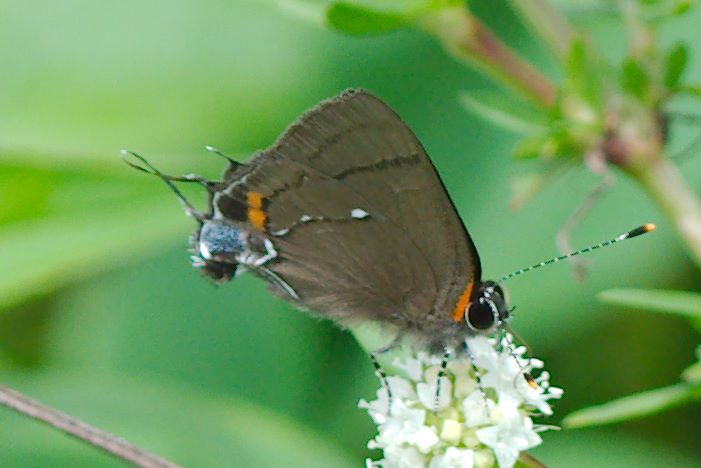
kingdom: Animalia
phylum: Arthropoda
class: Insecta
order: Lepidoptera
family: Lycaenidae
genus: Thecla
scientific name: Thecla angelia
